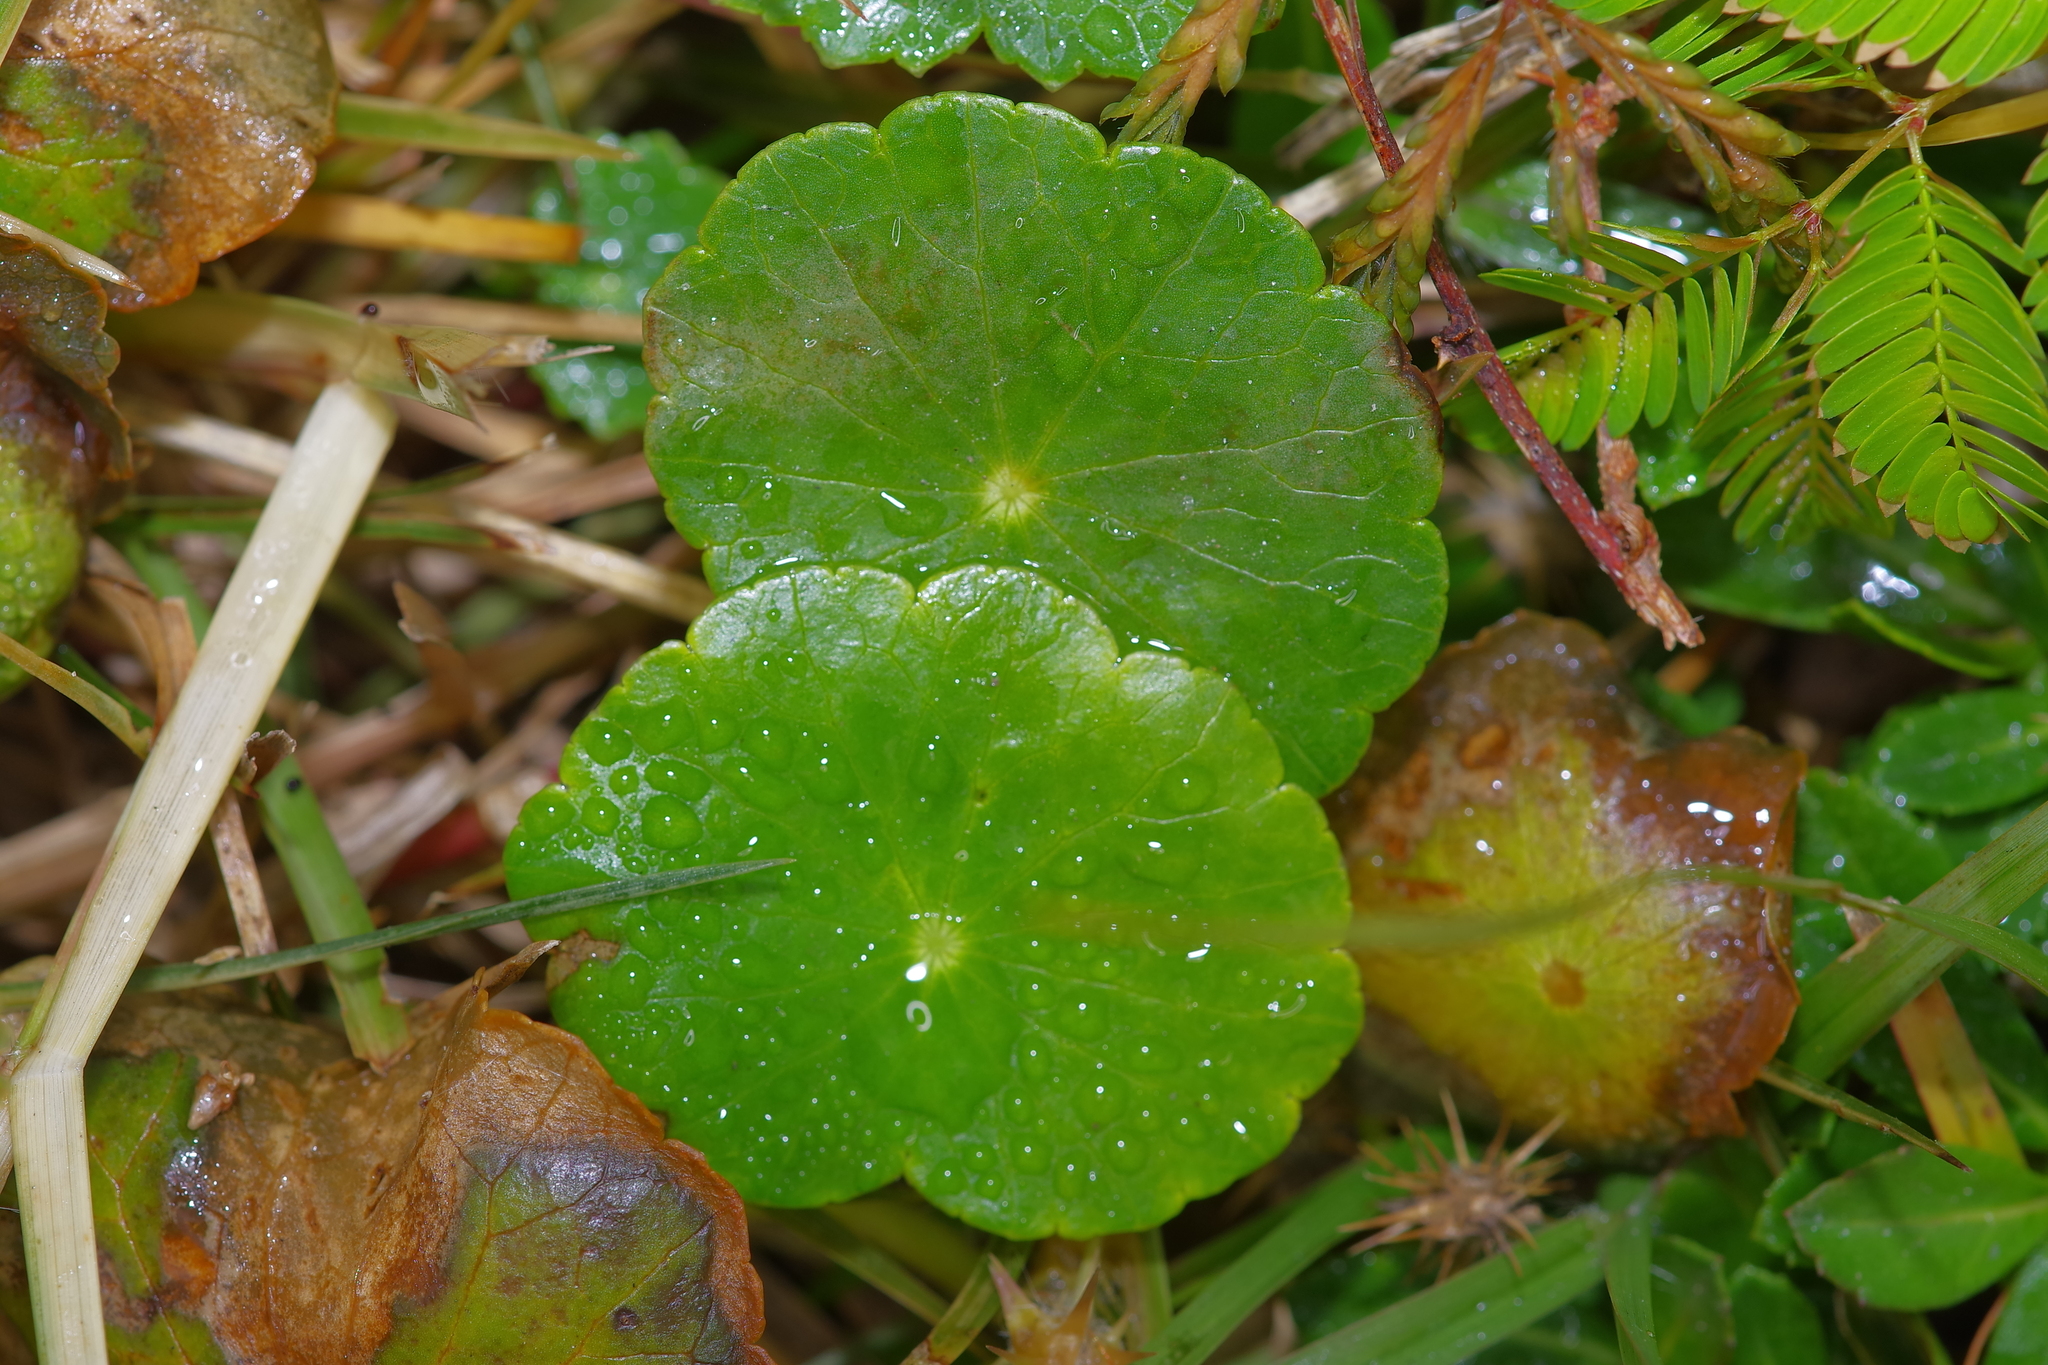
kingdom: Plantae
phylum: Tracheophyta
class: Magnoliopsida
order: Apiales
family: Araliaceae
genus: Hydrocotyle
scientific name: Hydrocotyle bonariensis
